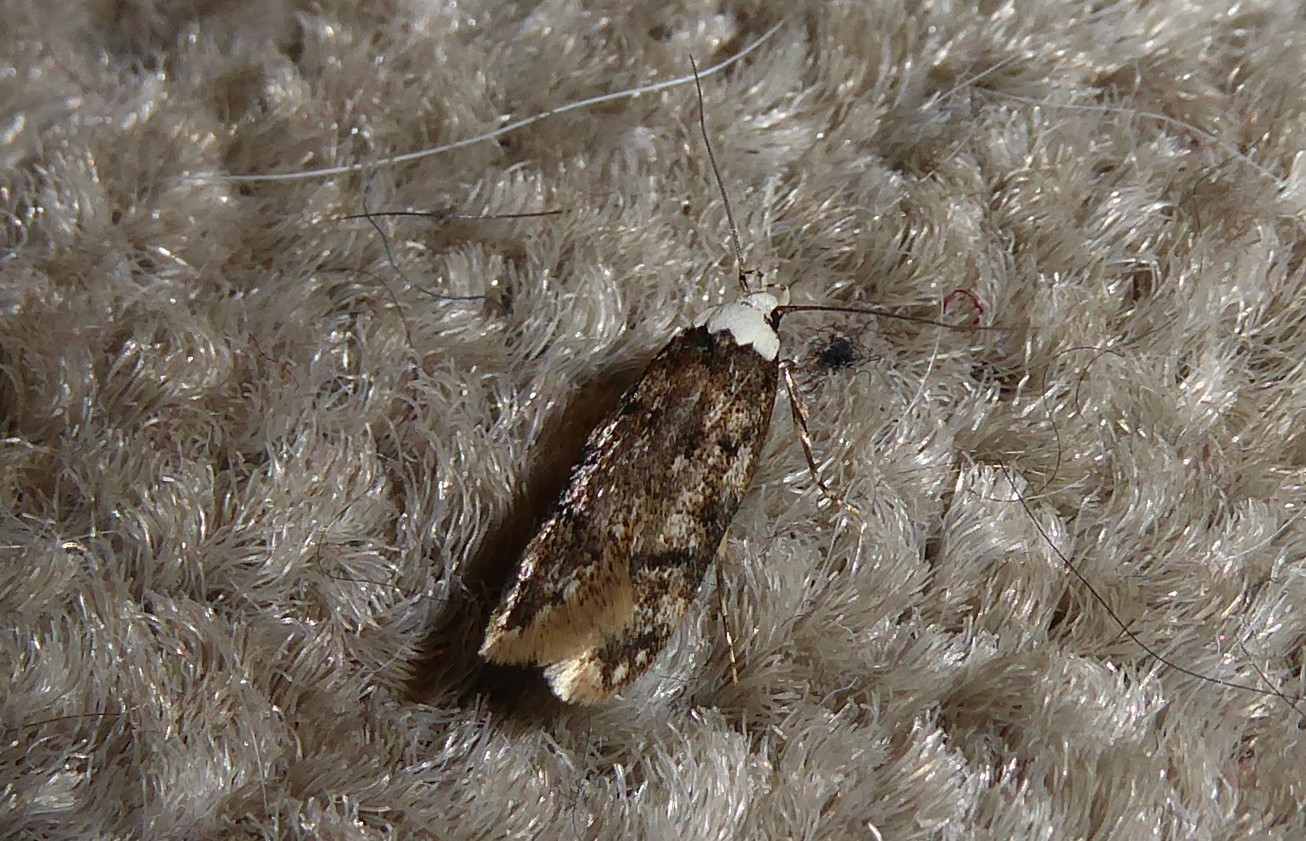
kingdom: Animalia
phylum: Arthropoda
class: Insecta
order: Lepidoptera
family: Oecophoridae
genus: Endrosis
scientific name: Endrosis sarcitrella
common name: White-shouldered house moth
